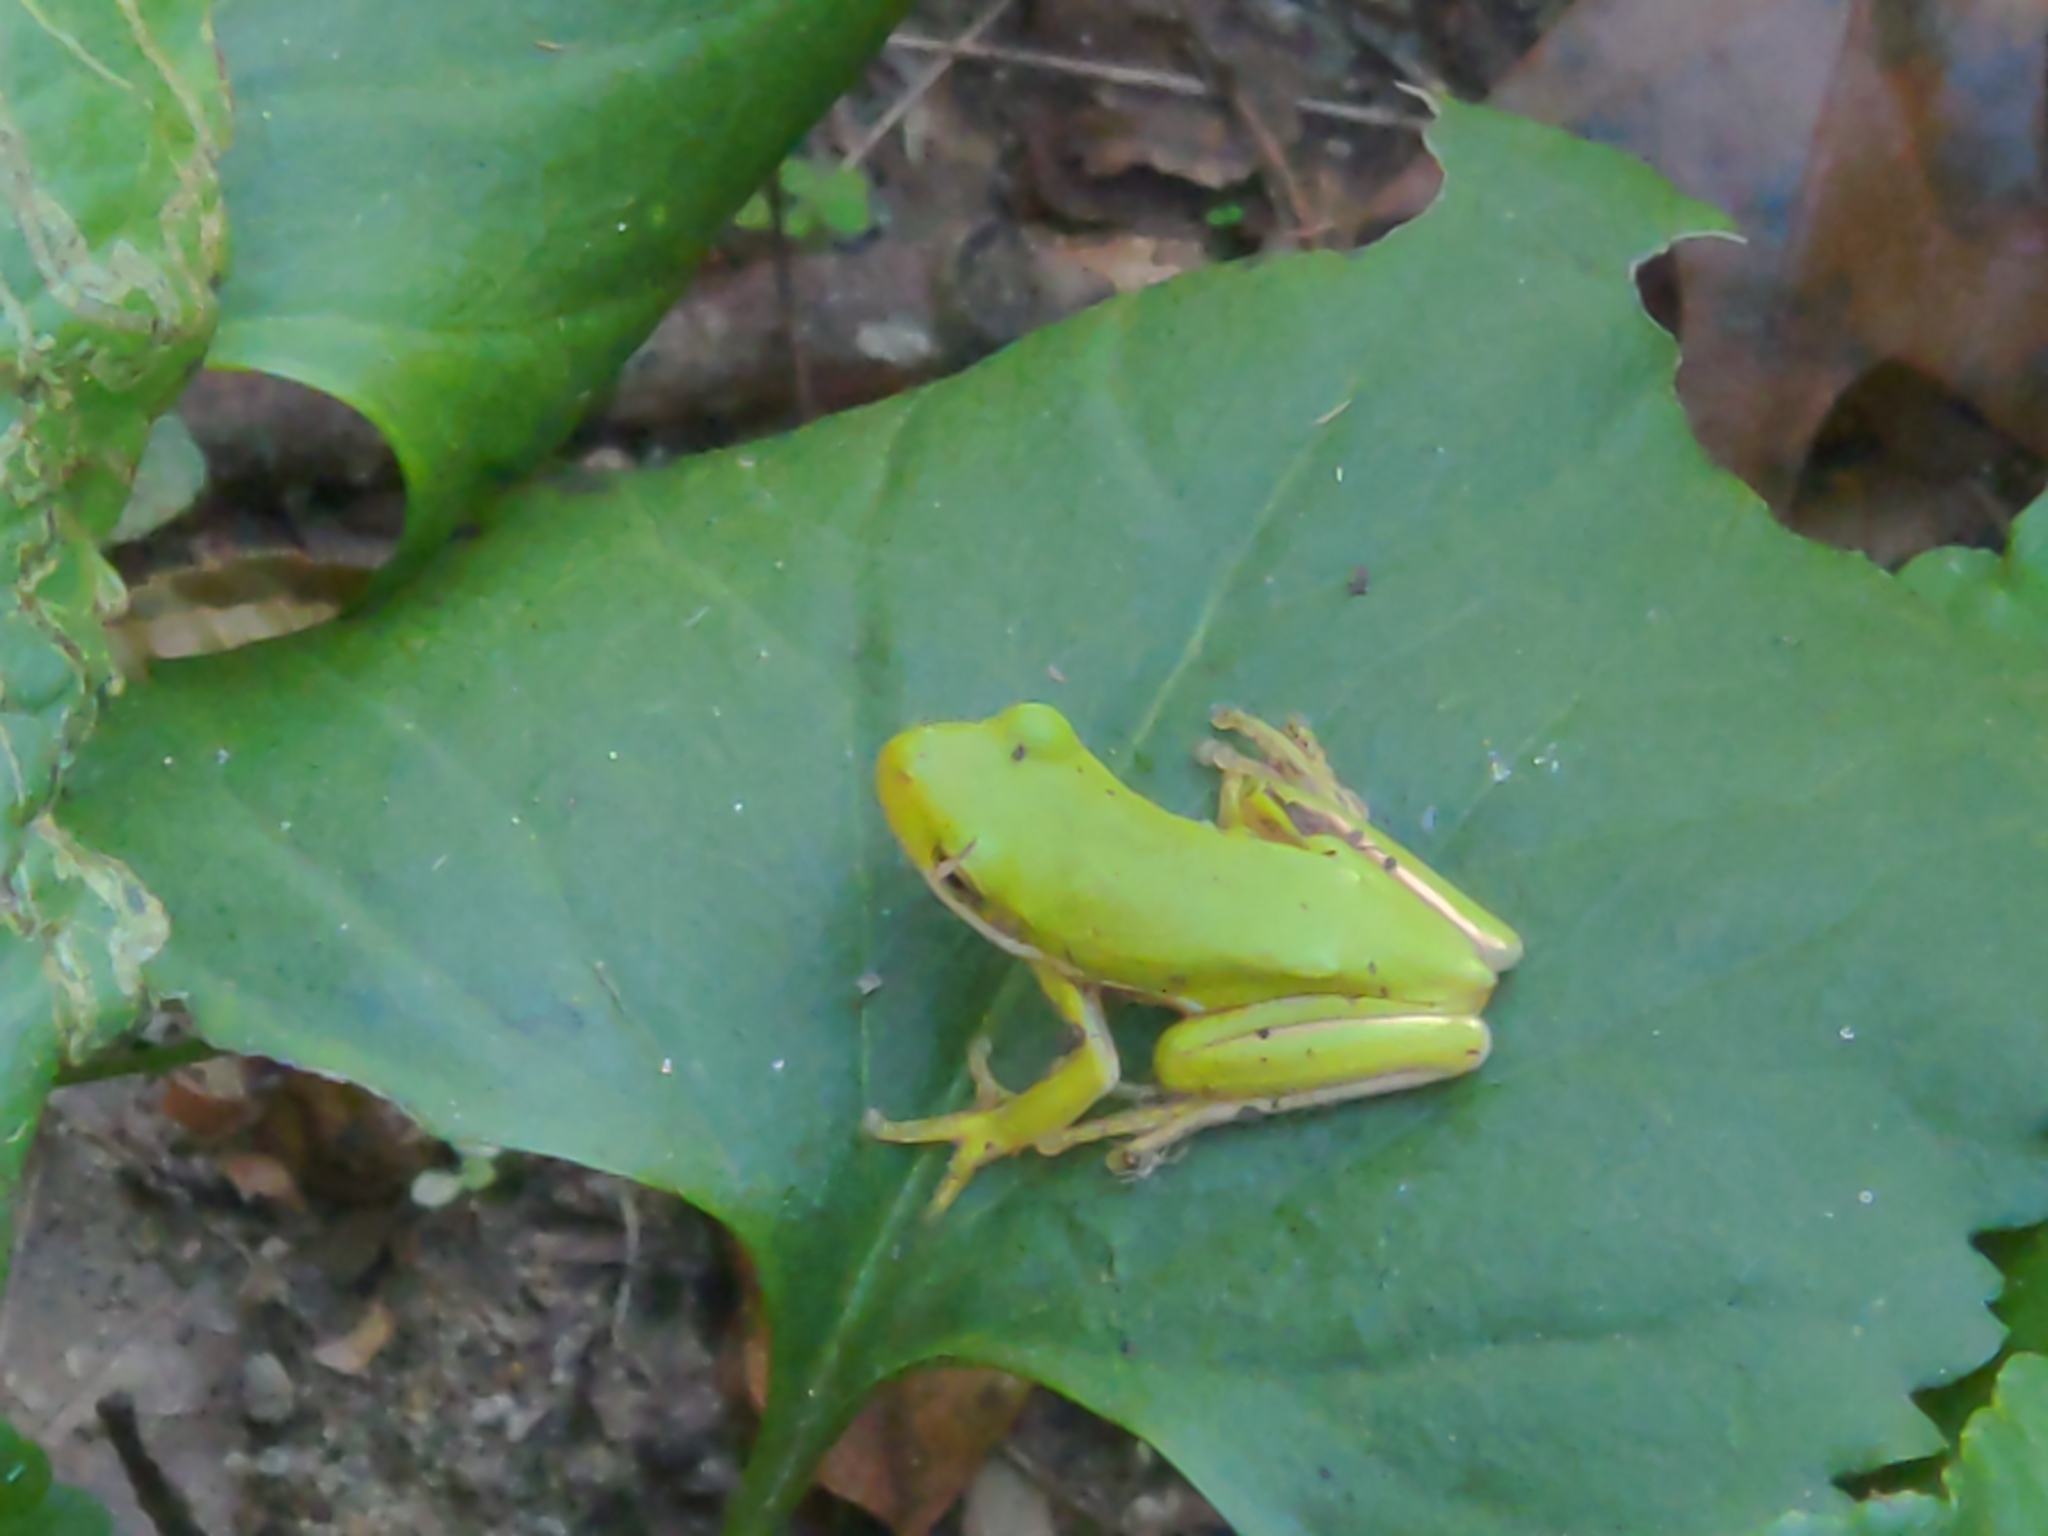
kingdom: Animalia
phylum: Chordata
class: Amphibia
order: Anura
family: Hylidae
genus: Dryophytes
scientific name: Dryophytes cinereus
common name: Green treefrog
